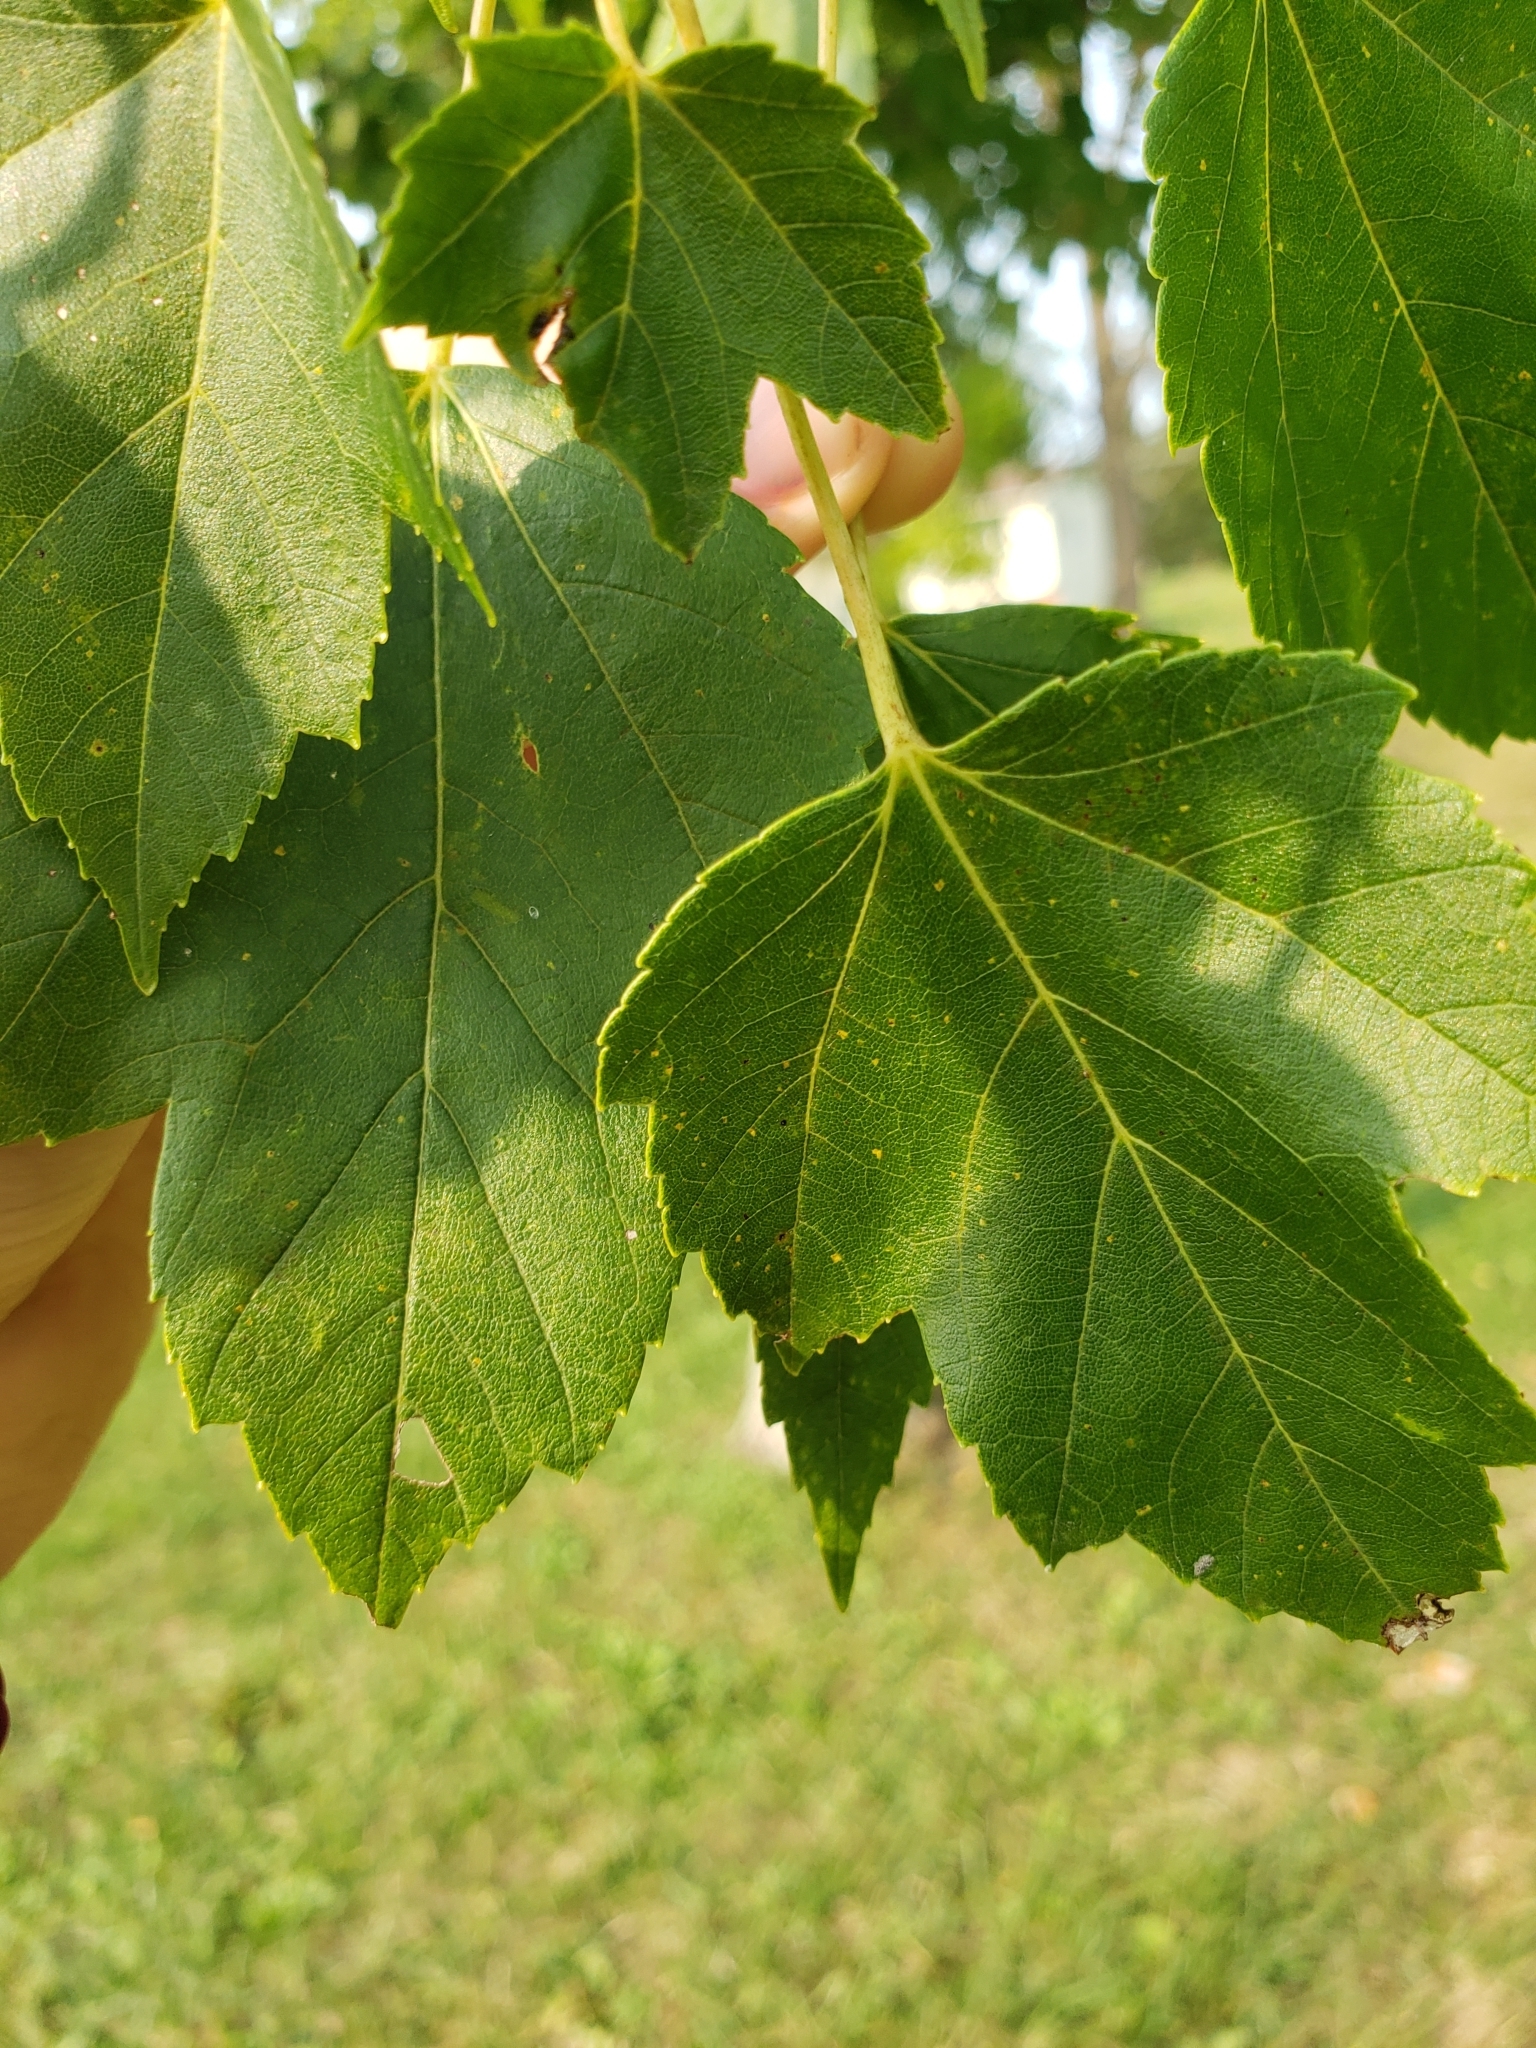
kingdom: Plantae
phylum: Tracheophyta
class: Magnoliopsida
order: Sapindales
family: Sapindaceae
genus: Acer
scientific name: Acer rubrum
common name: Red maple
